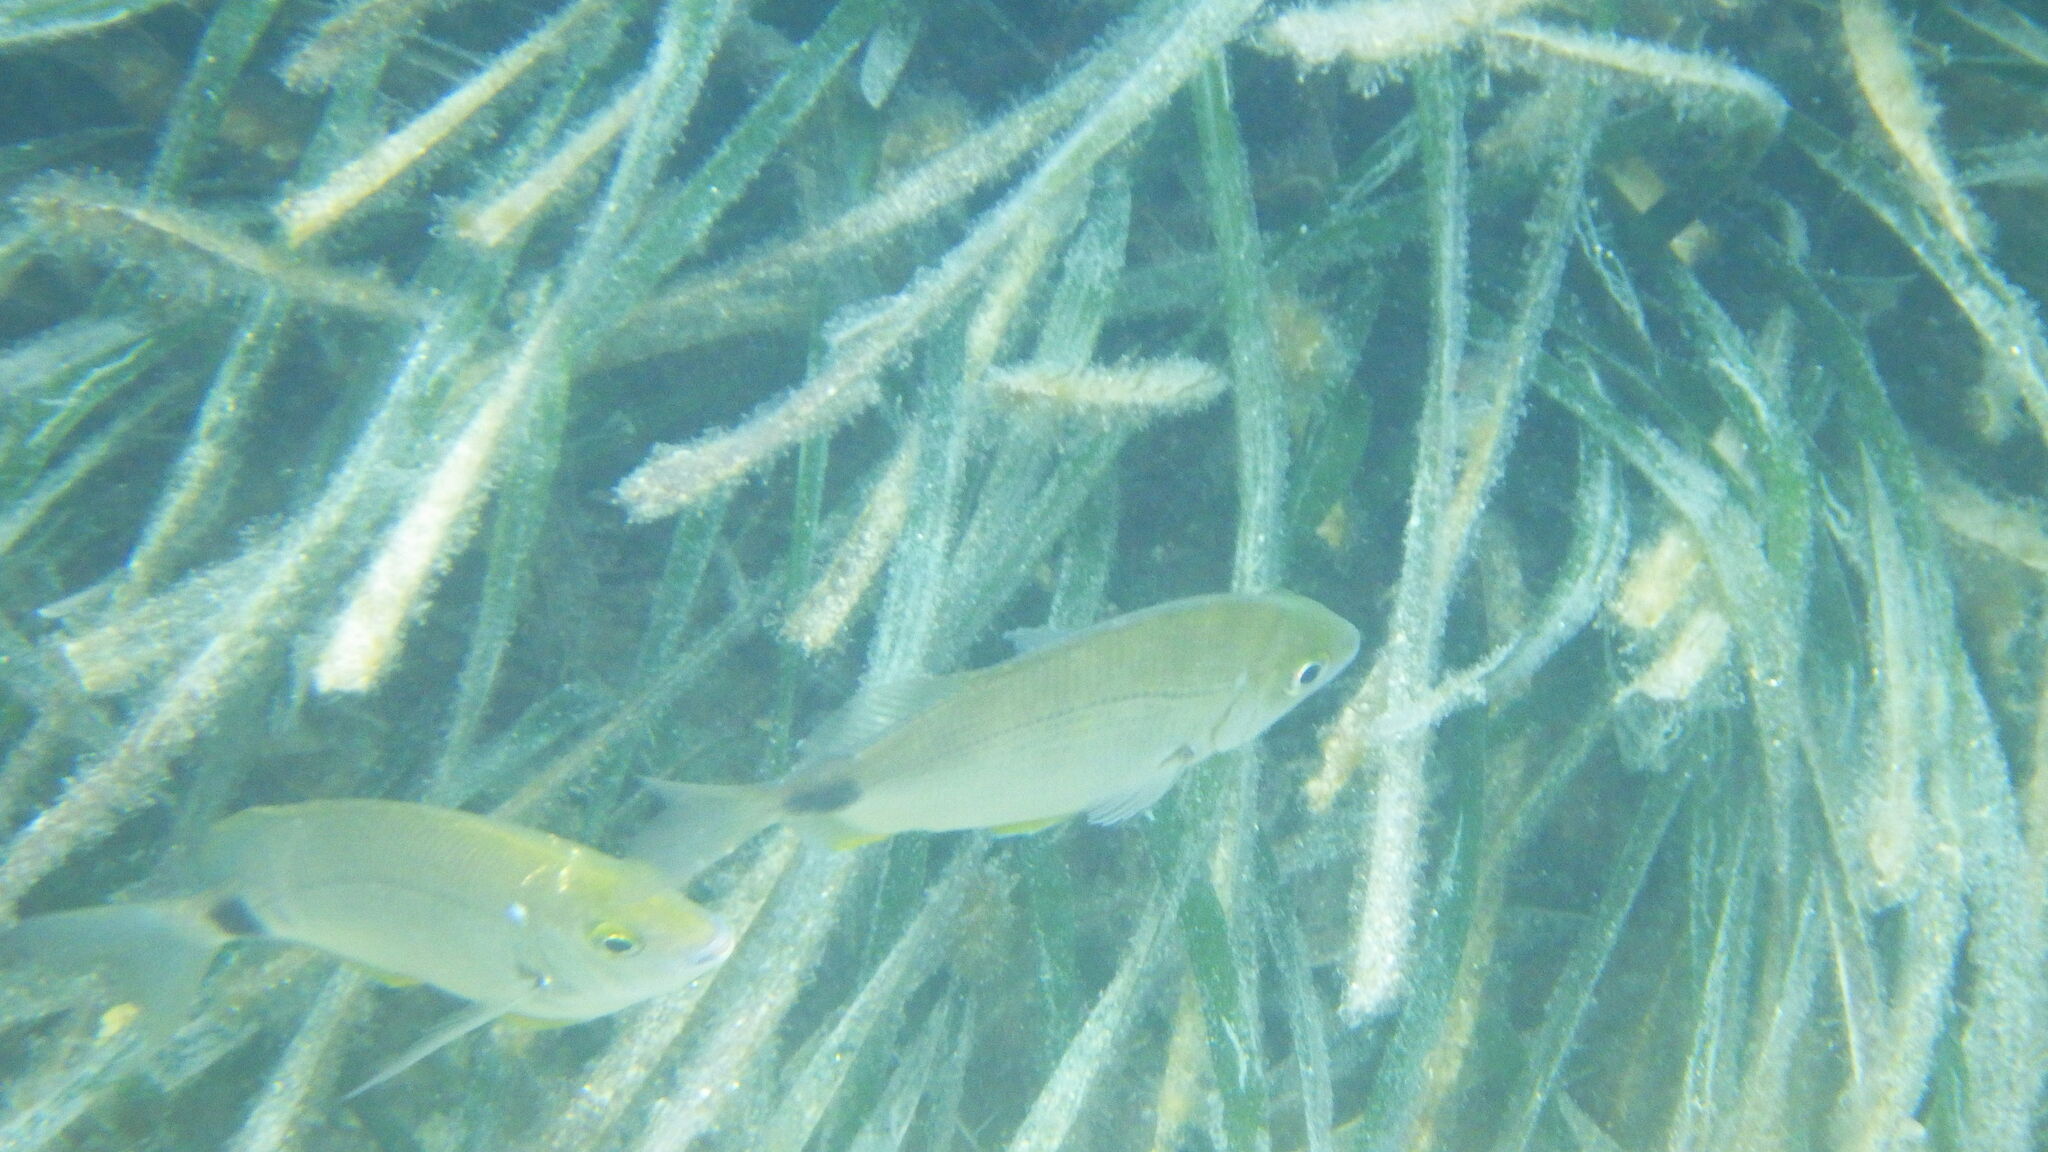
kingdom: Animalia
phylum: Chordata
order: Perciformes
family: Sparidae
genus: Diplodus
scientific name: Diplodus annularis
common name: Annular seabream
